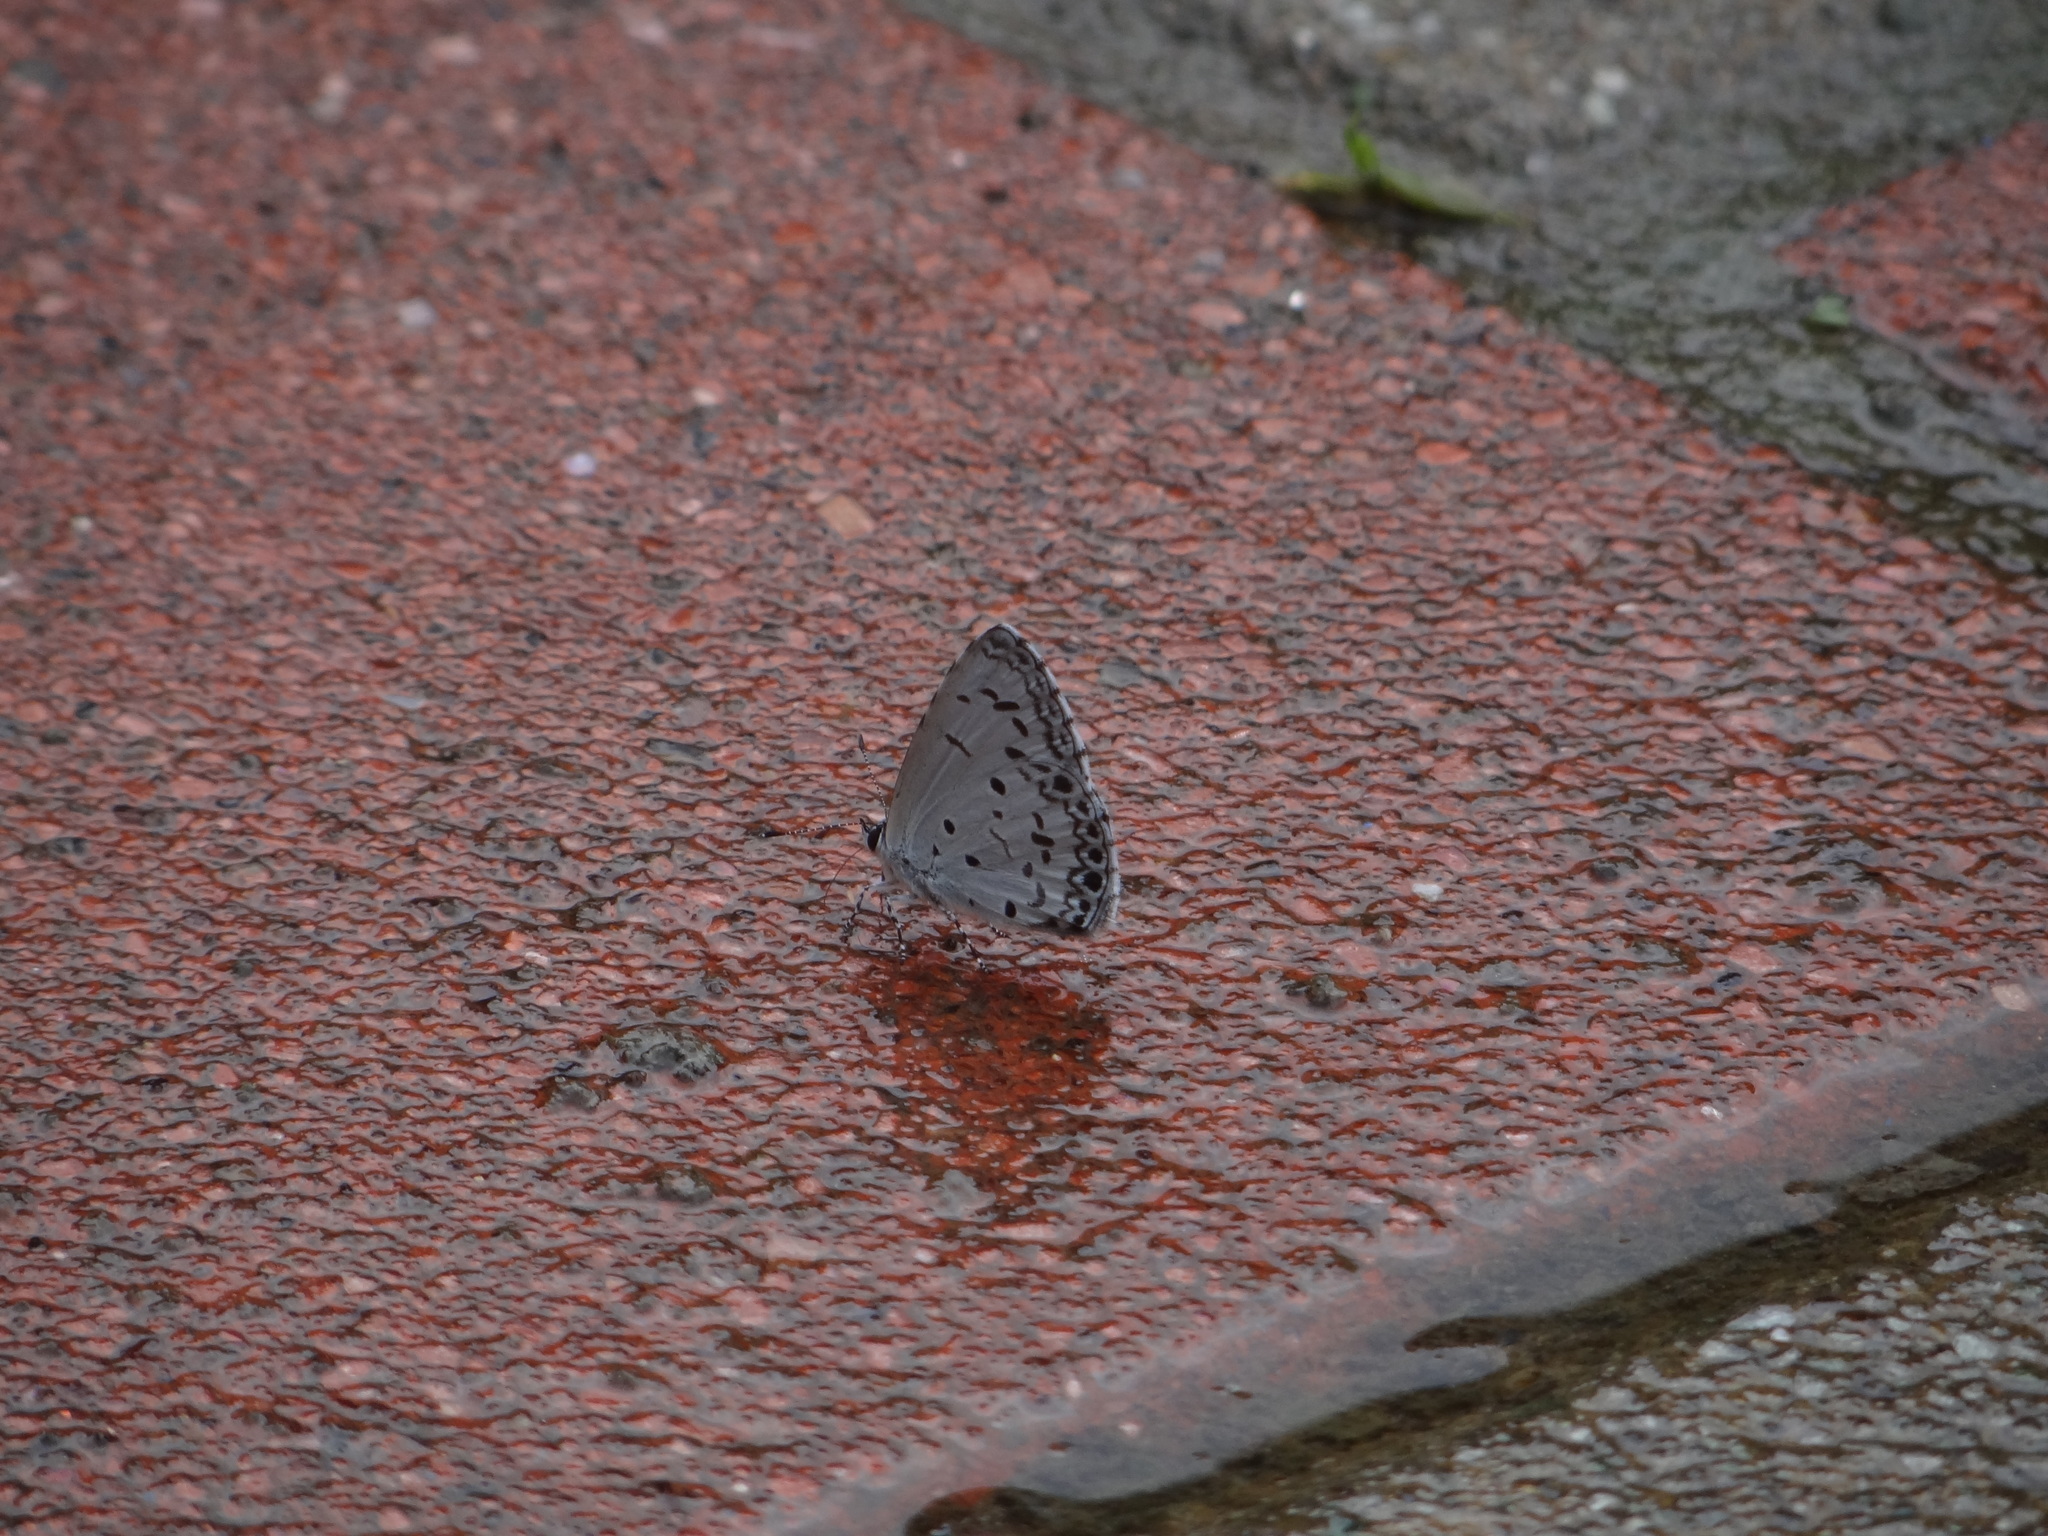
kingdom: Animalia
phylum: Arthropoda
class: Insecta
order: Lepidoptera
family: Lycaenidae
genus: Acytolepis
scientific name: Acytolepis puspa
